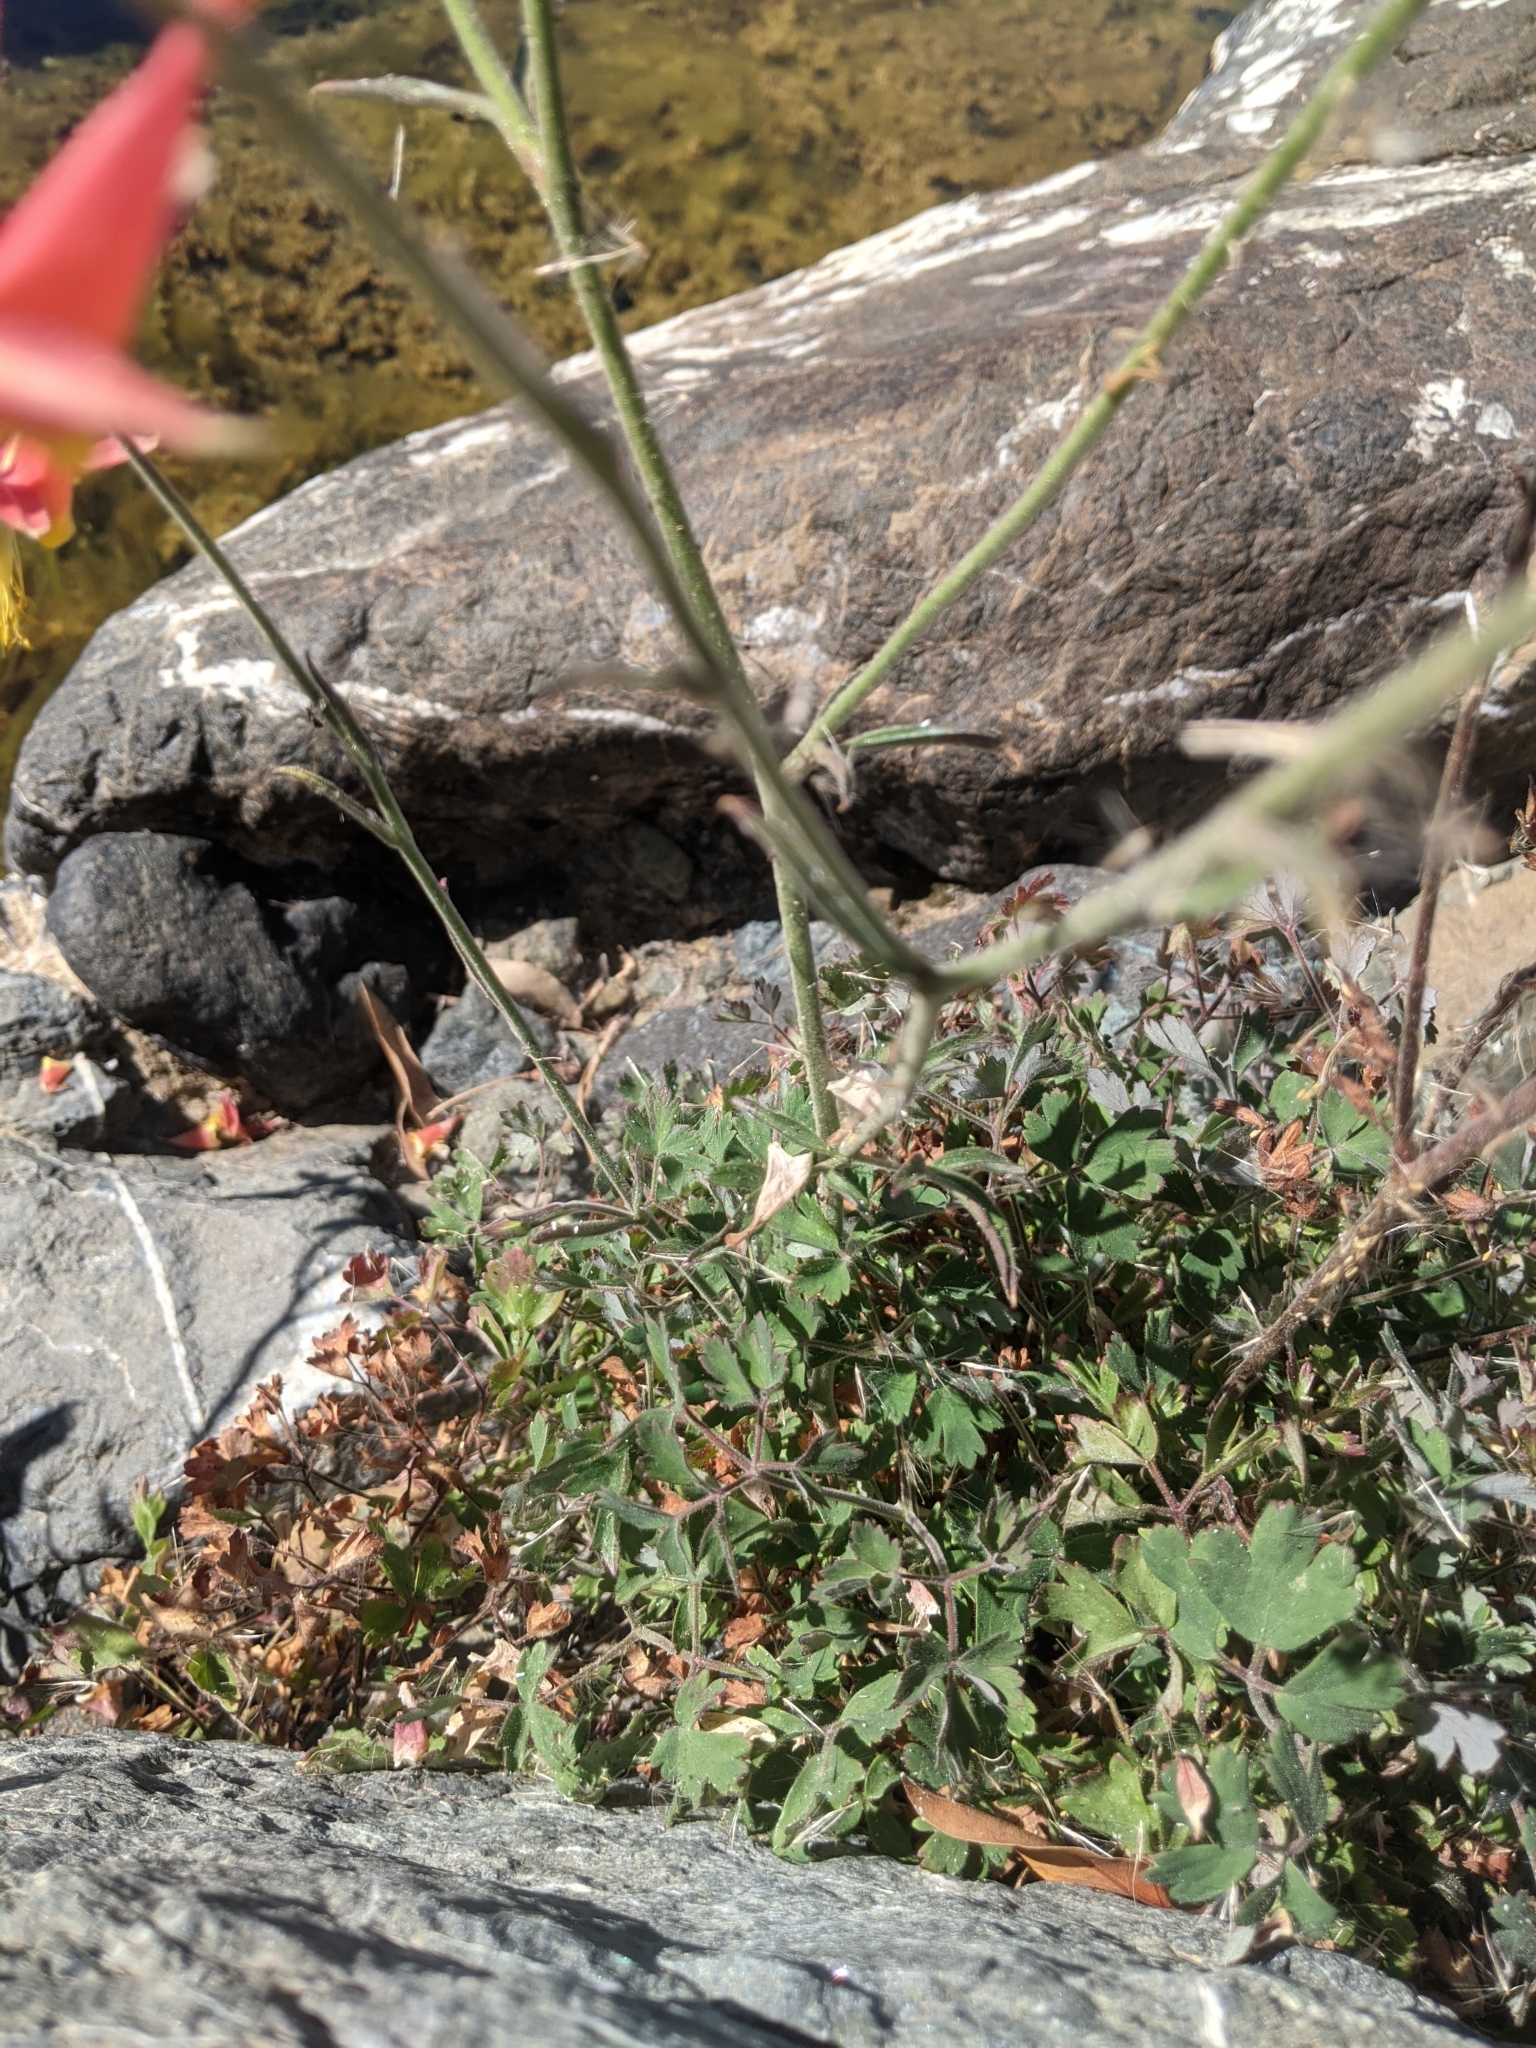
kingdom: Plantae
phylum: Tracheophyta
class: Magnoliopsida
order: Ranunculales
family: Ranunculaceae
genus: Aquilegia
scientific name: Aquilegia eximia
